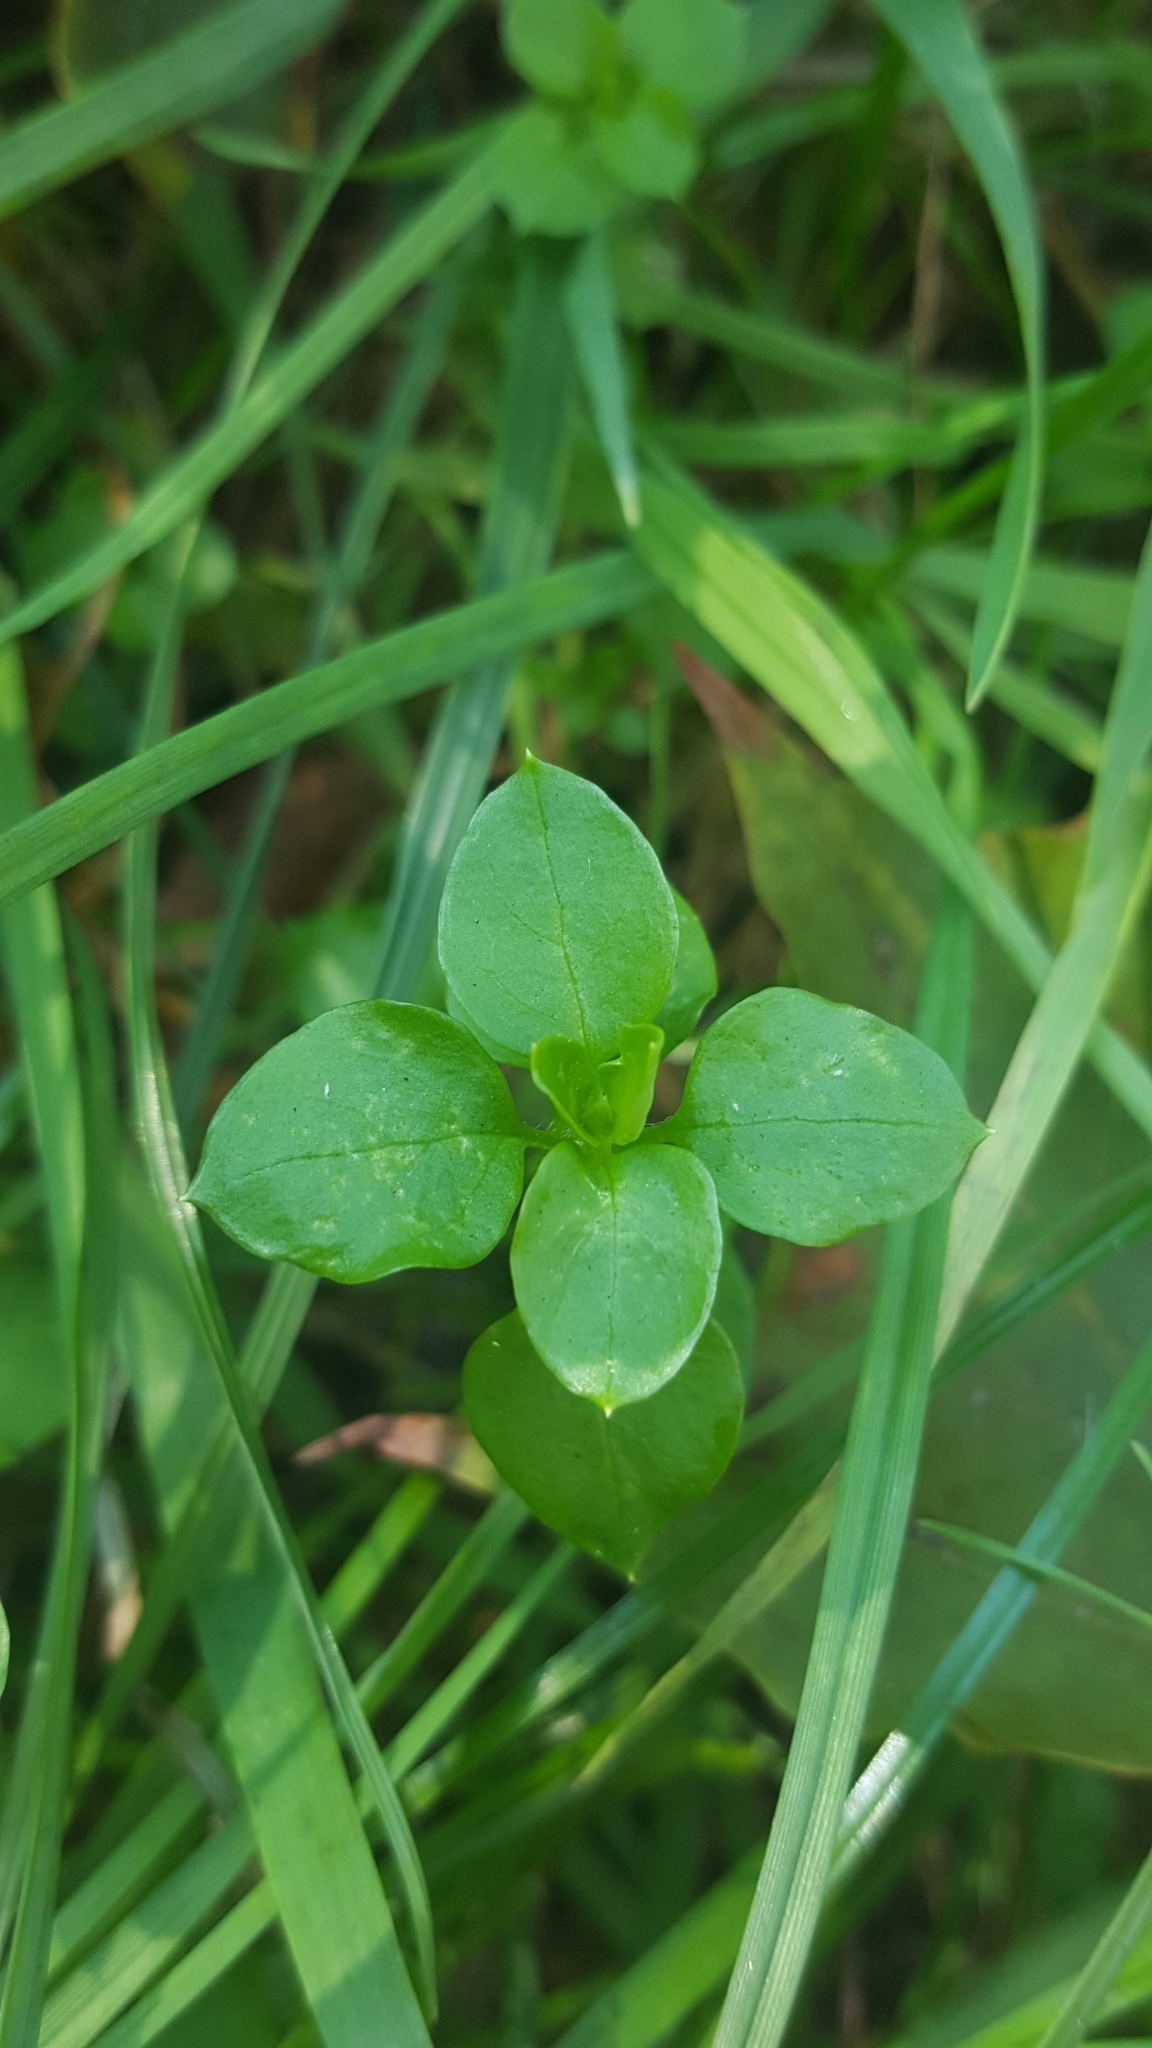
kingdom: Plantae
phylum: Tracheophyta
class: Magnoliopsida
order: Caryophyllales
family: Caryophyllaceae
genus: Stellaria
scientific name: Stellaria media
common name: Common chickweed
